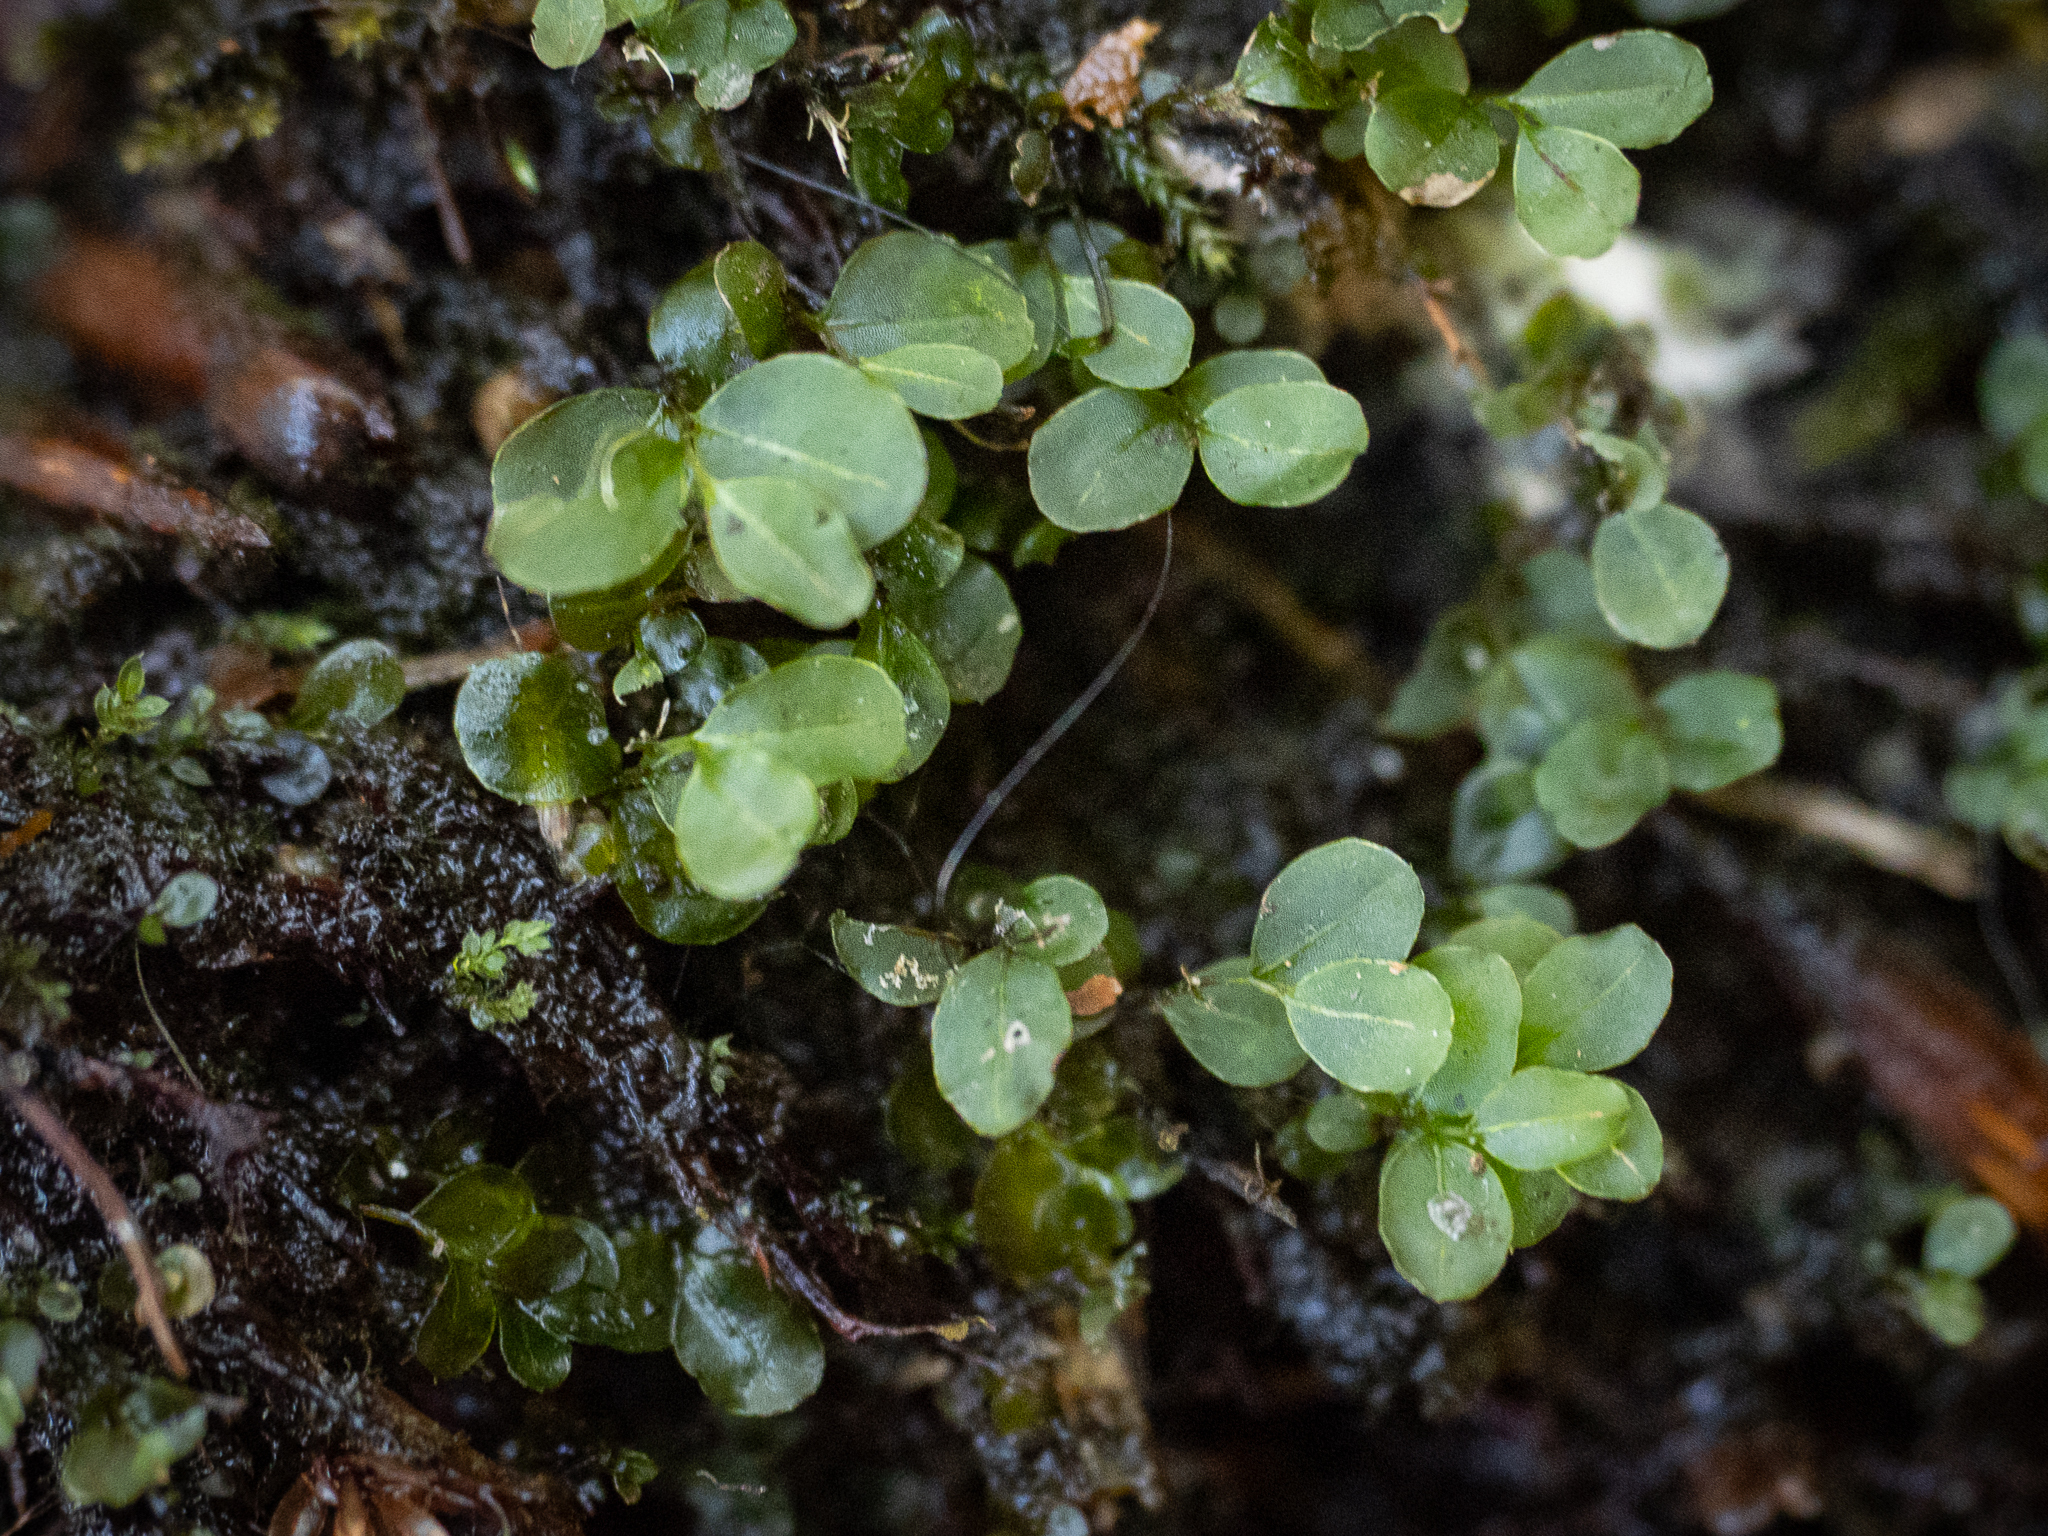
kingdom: Plantae
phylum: Bryophyta
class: Bryopsida
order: Bryales
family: Mniaceae
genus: Rhizomnium
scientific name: Rhizomnium punctatum
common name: Dotted leafy moss
